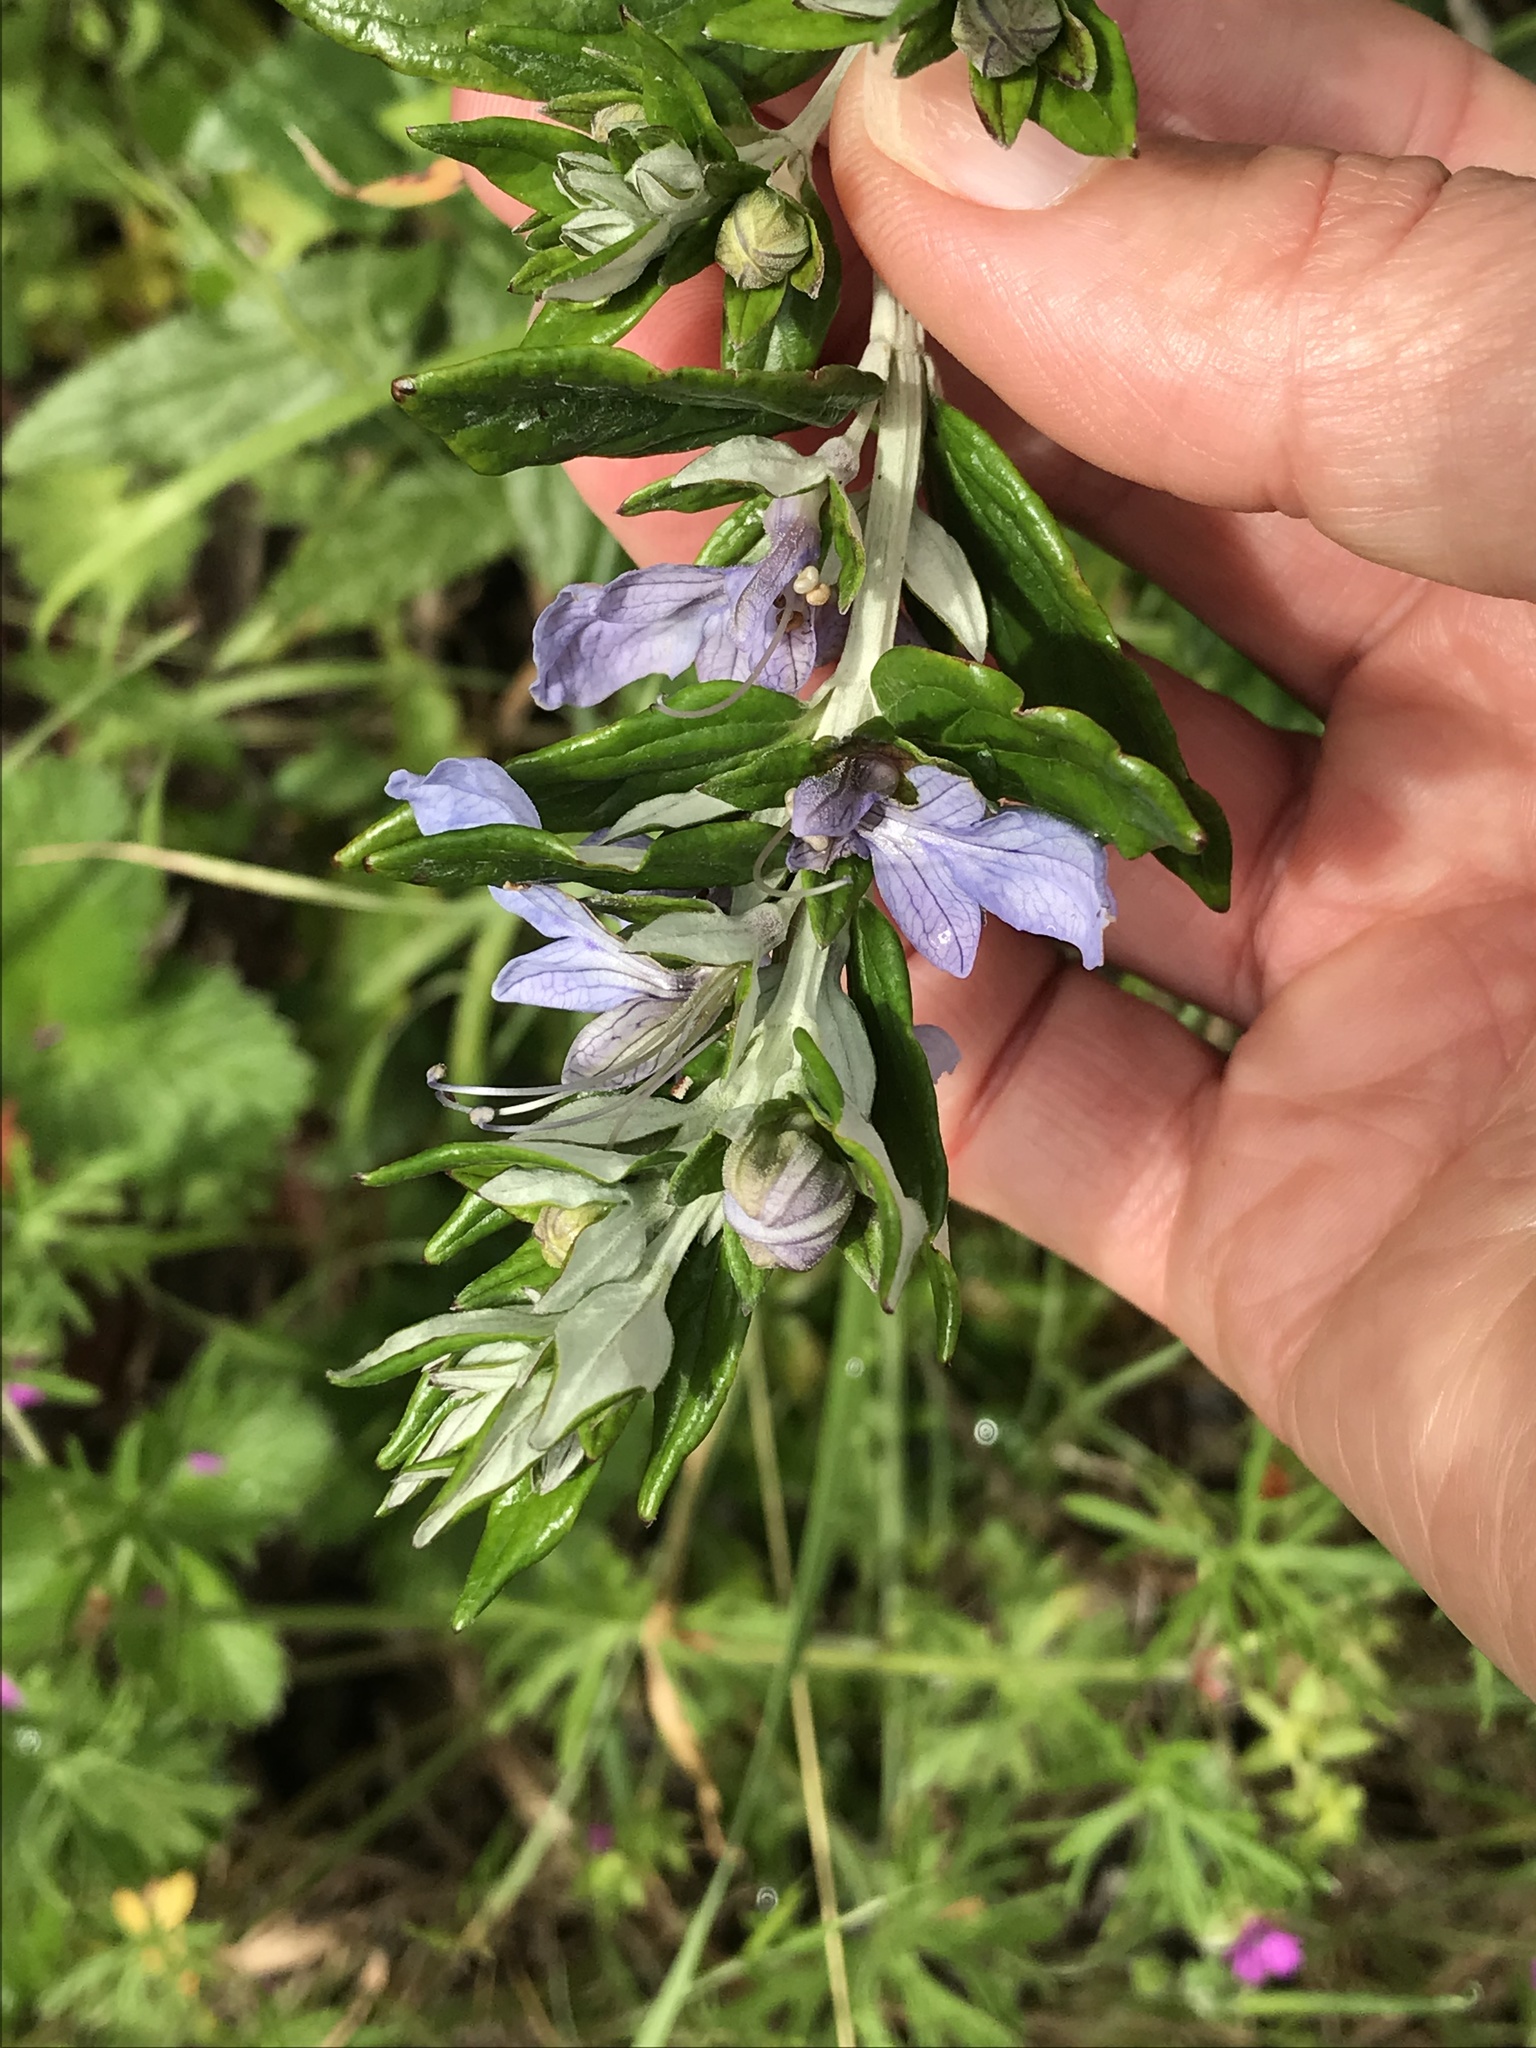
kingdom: Plantae
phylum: Tracheophyta
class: Magnoliopsida
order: Lamiales
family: Lamiaceae
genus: Teucrium
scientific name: Teucrium fruticans
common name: Shrubby germander
